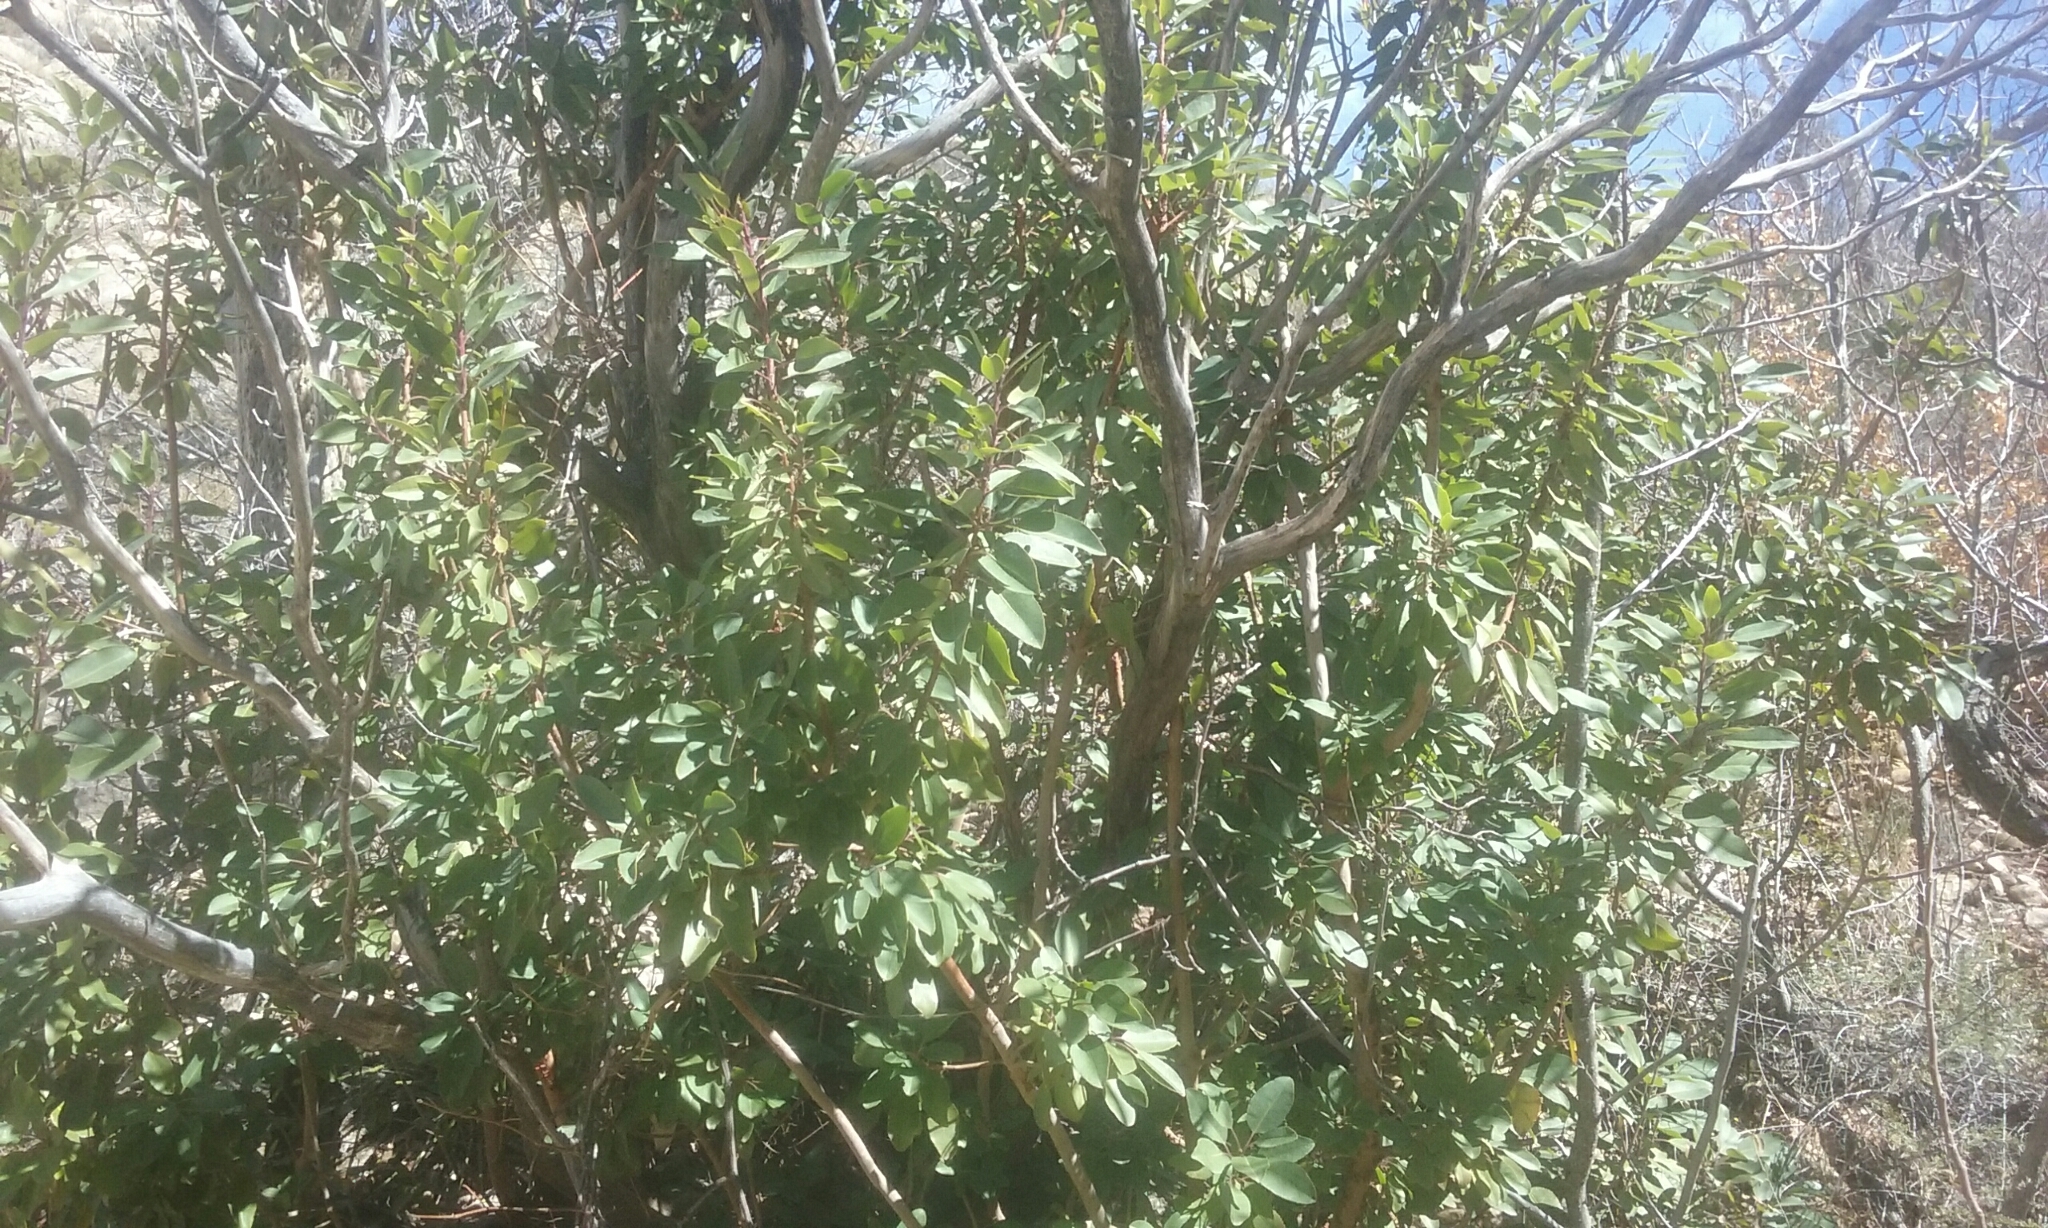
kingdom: Plantae
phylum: Tracheophyta
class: Magnoliopsida
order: Ericales
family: Ericaceae
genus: Arbutus
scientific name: Arbutus xalapensis
